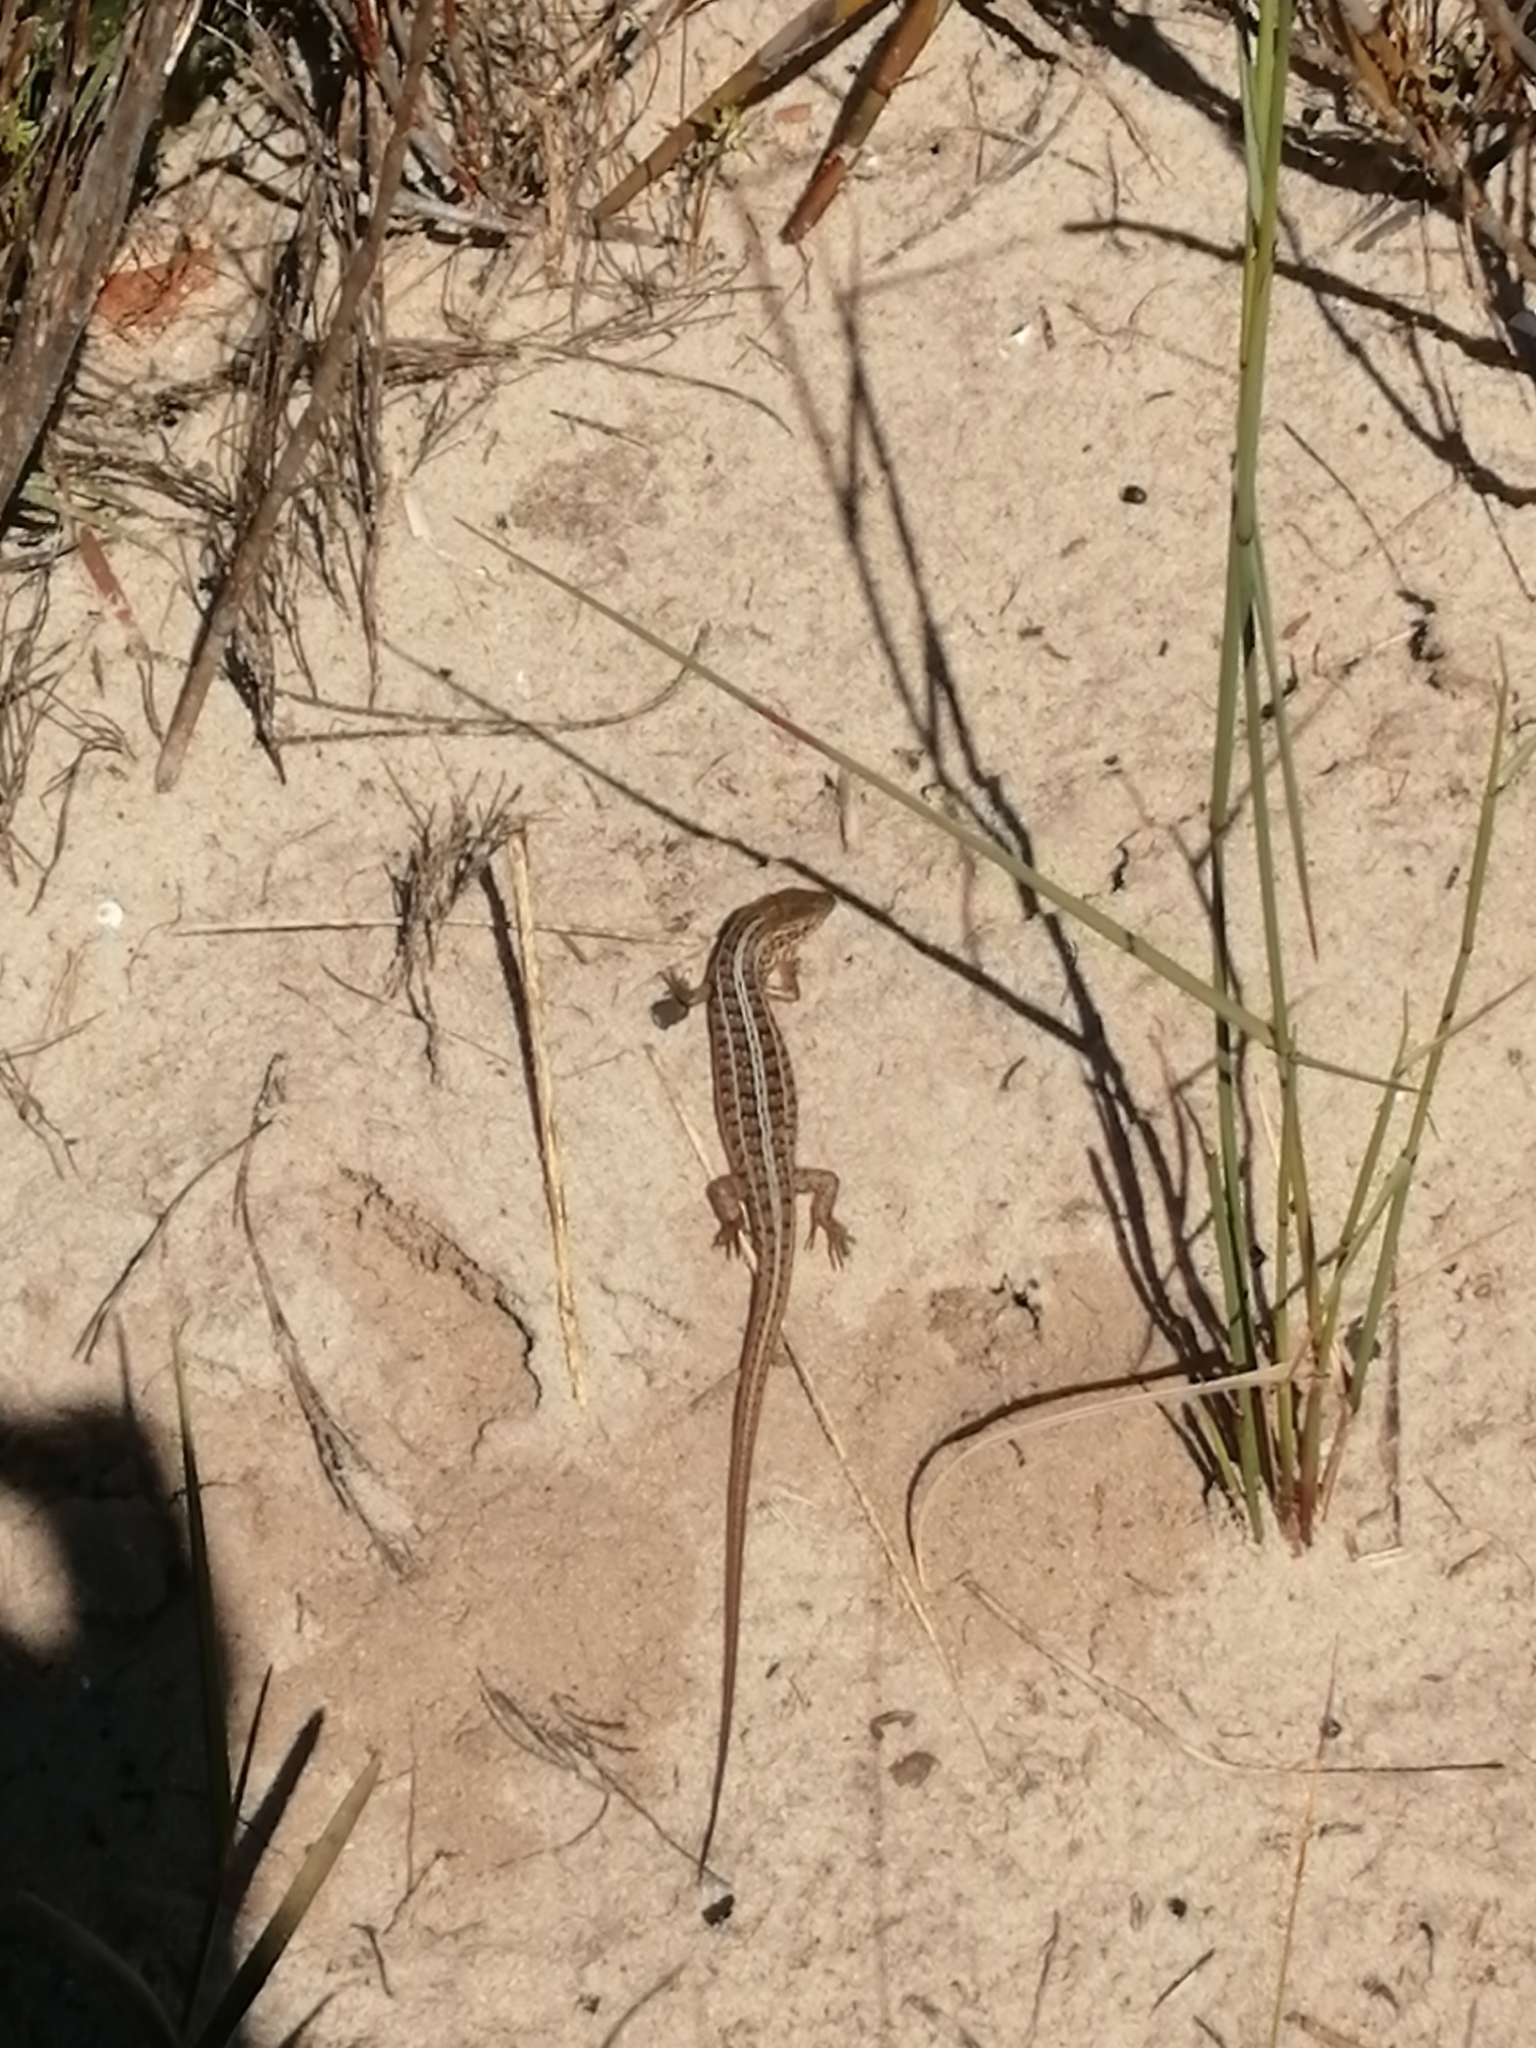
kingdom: Animalia
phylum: Chordata
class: Squamata
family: Scincidae
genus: Trachylepis
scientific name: Trachylepis capensis
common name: Cape skink
